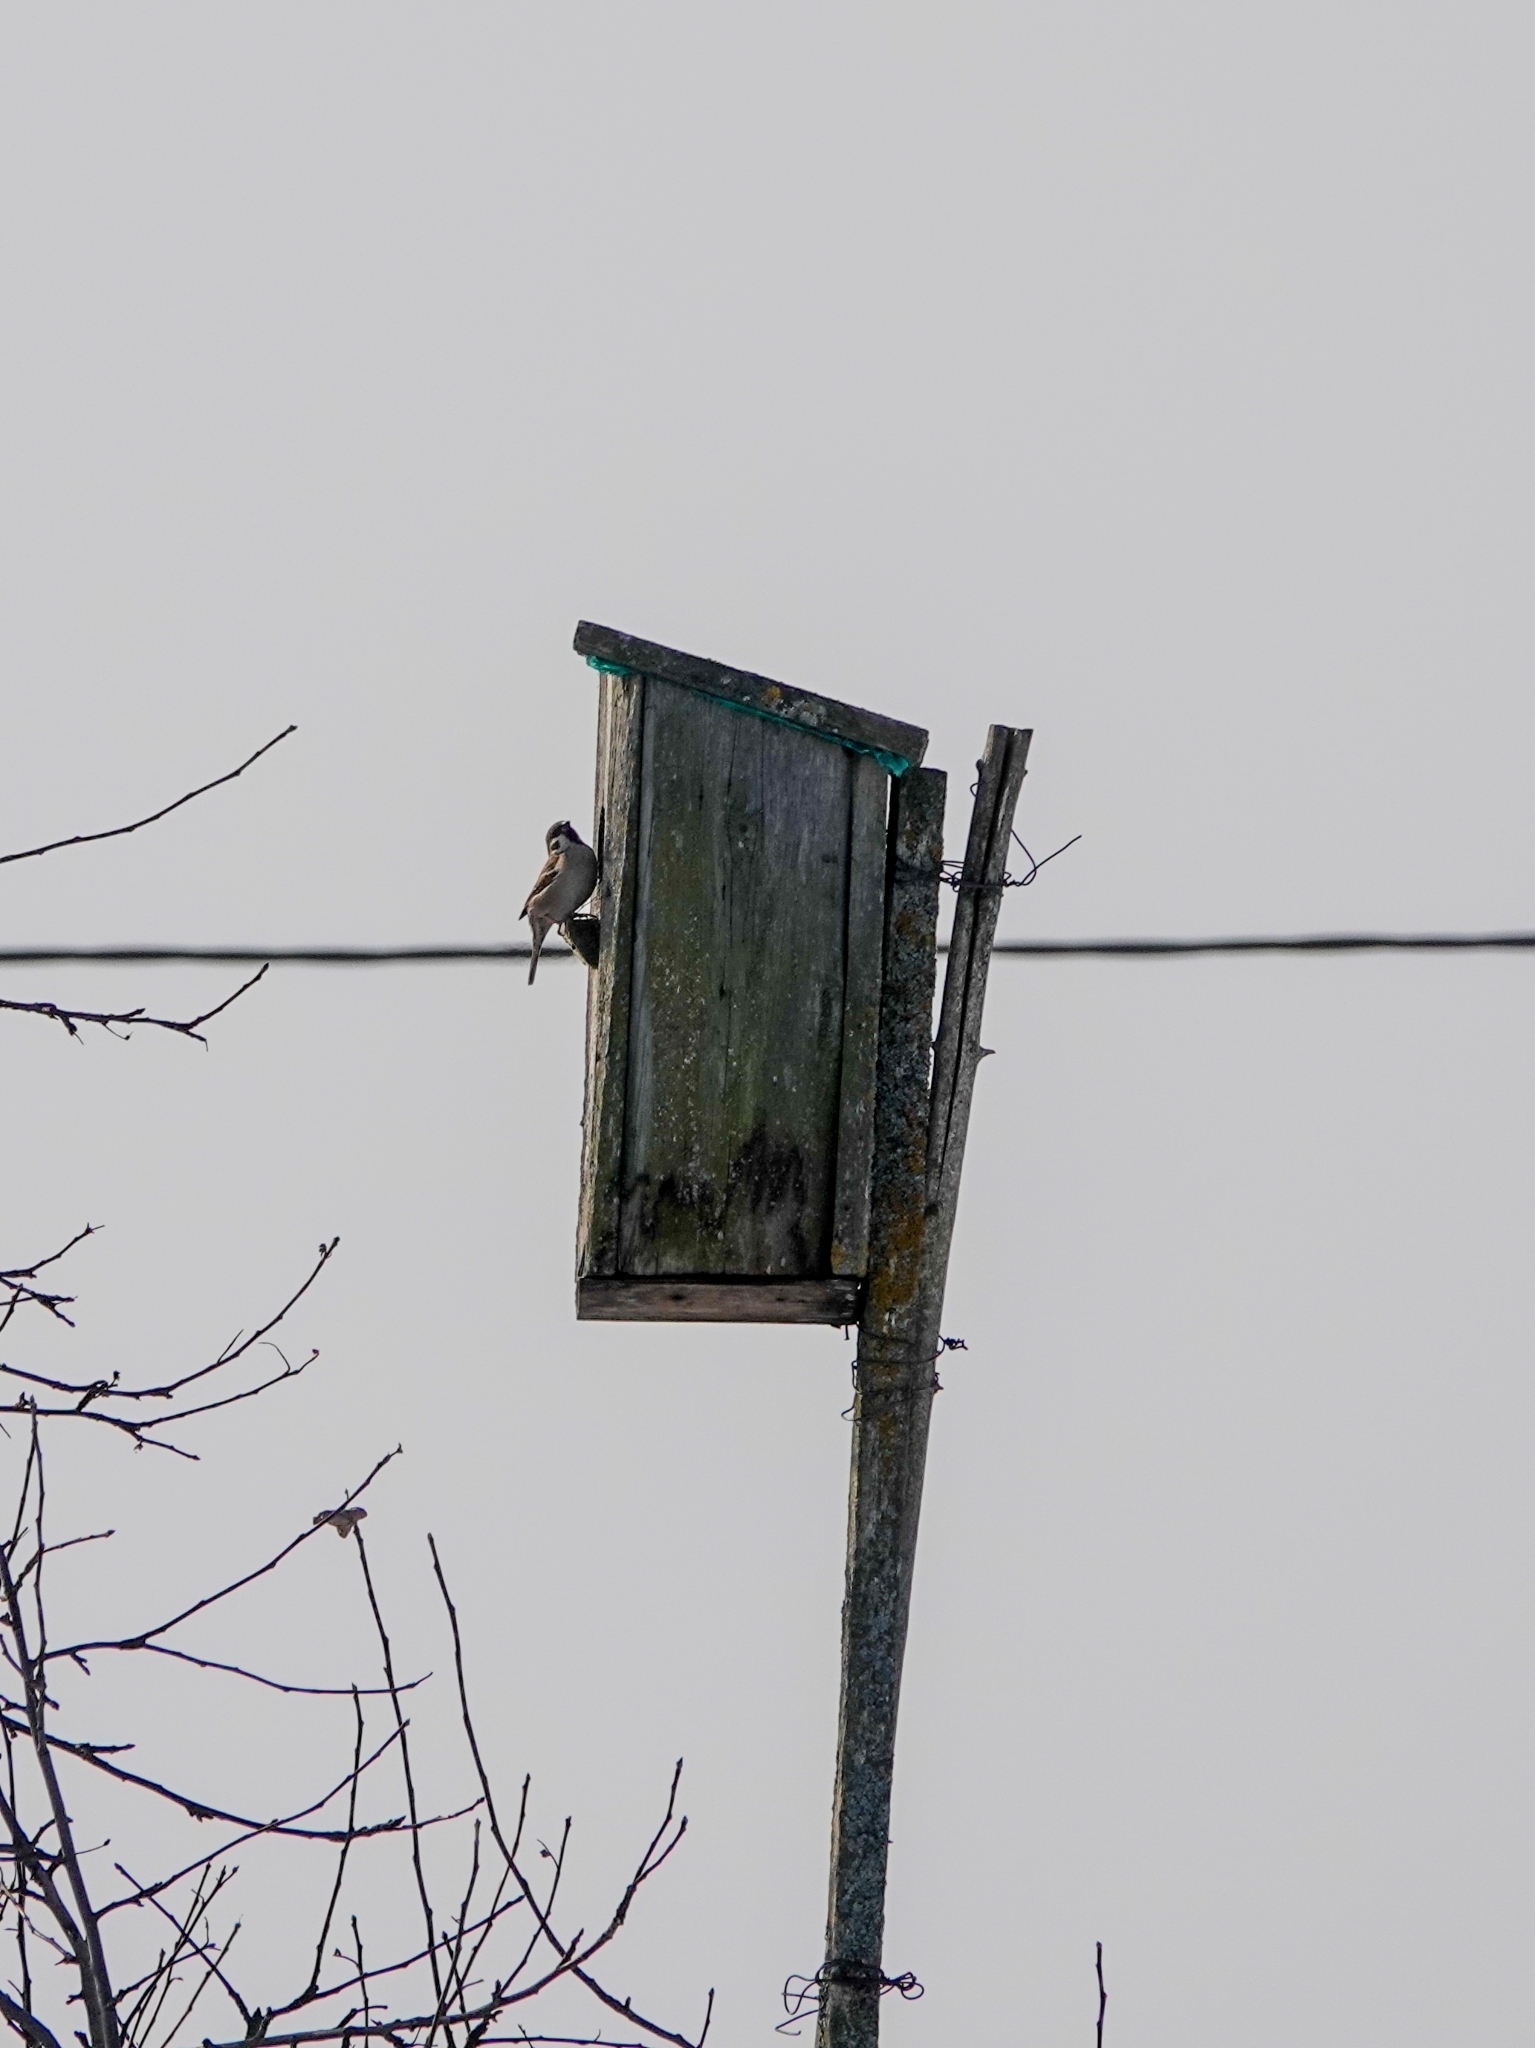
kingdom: Animalia
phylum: Chordata
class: Aves
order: Passeriformes
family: Passeridae
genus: Passer
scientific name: Passer montanus
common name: Eurasian tree sparrow
